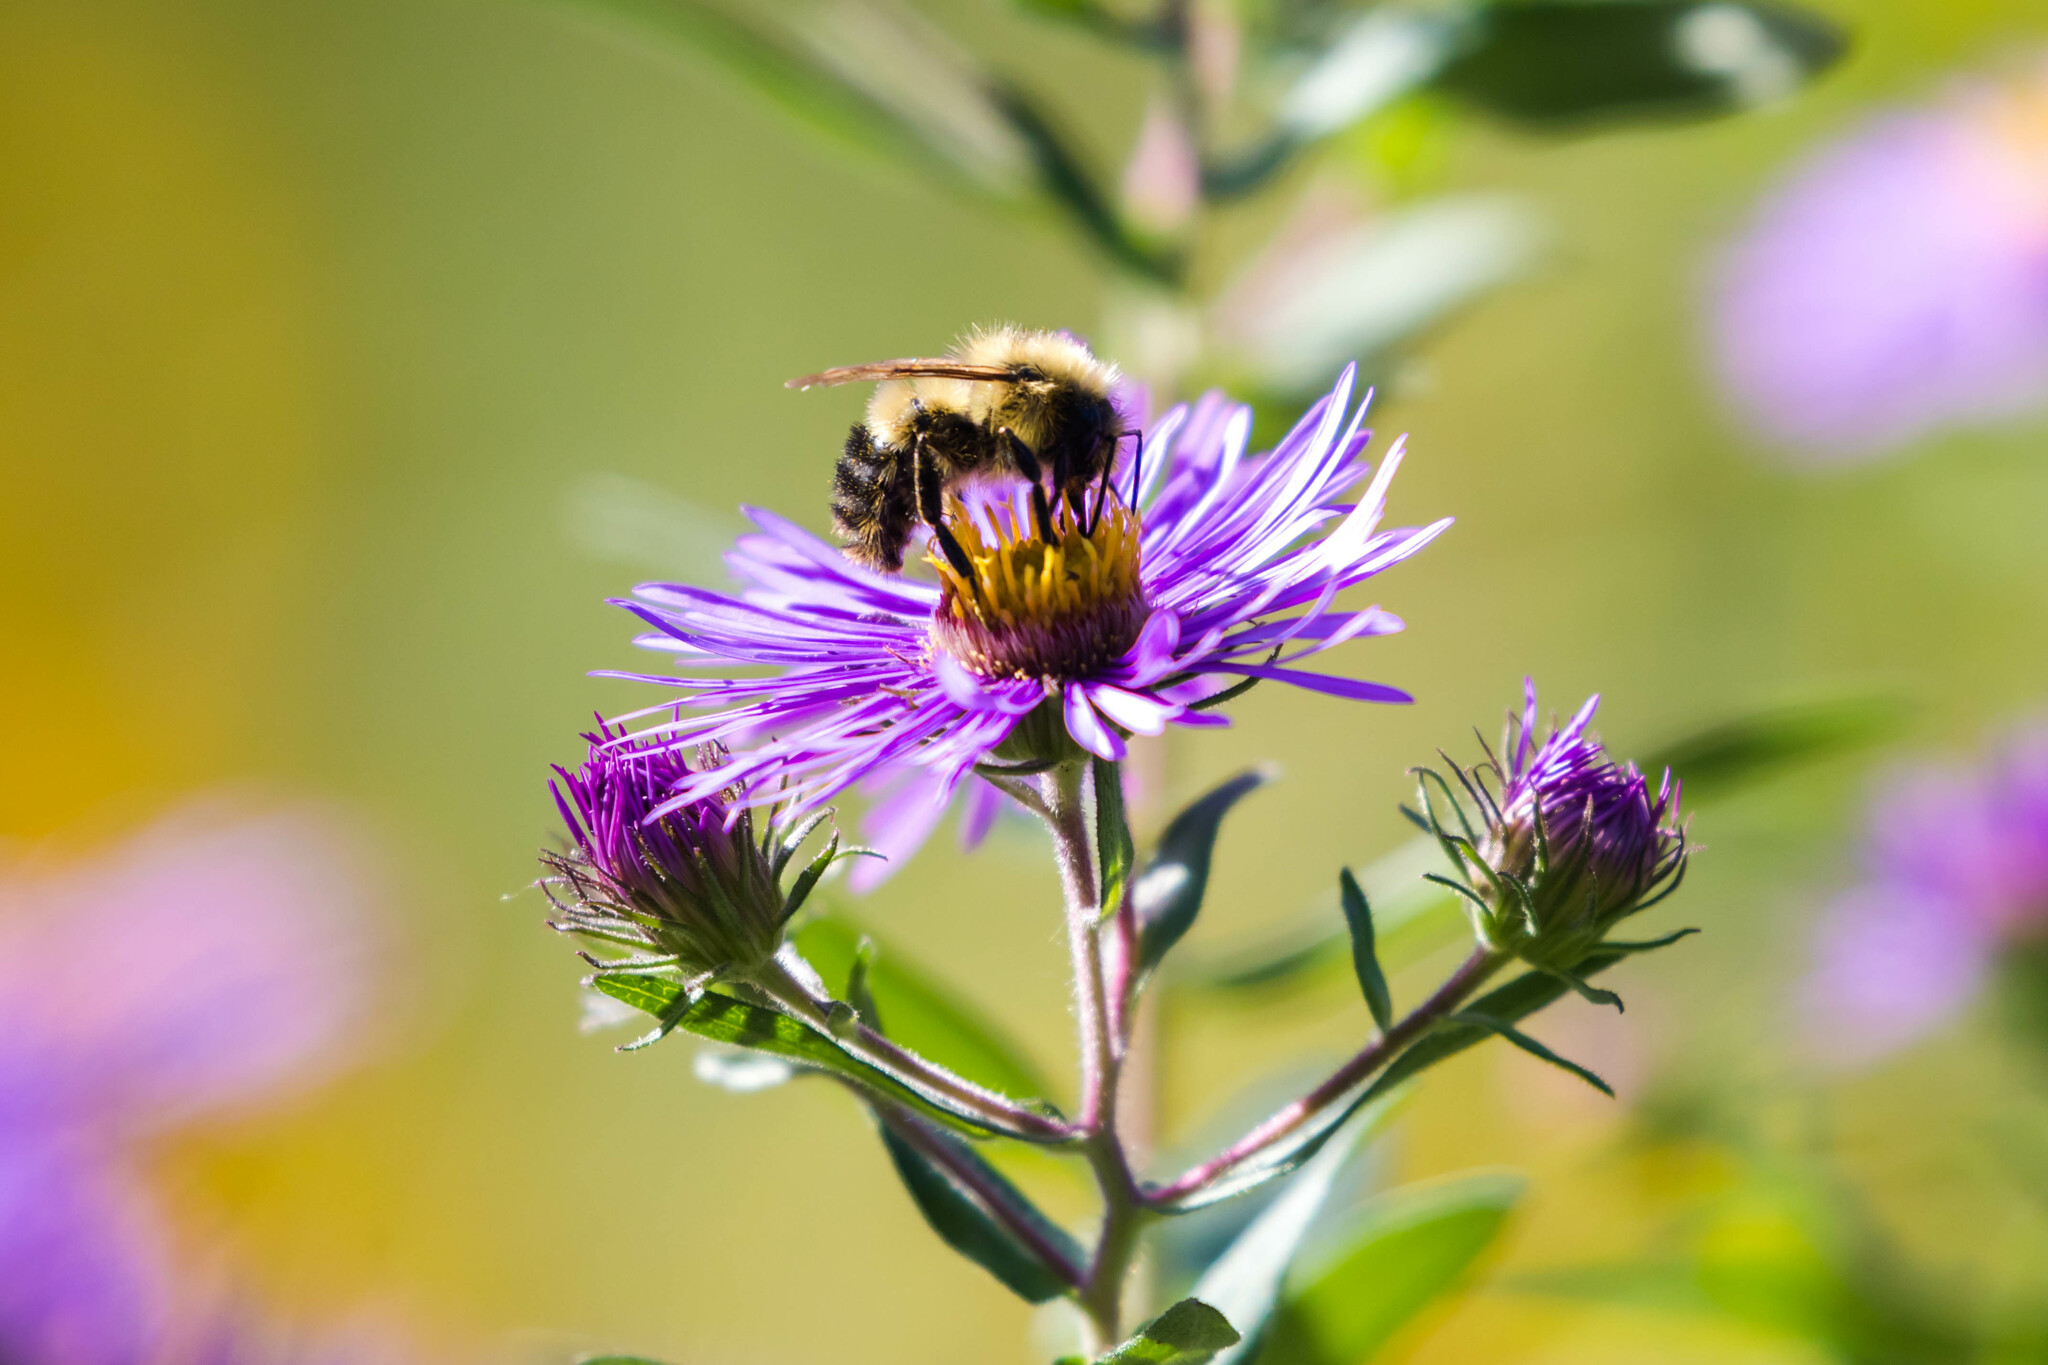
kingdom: Animalia
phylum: Arthropoda
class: Insecta
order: Hymenoptera
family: Apidae
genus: Pyrobombus
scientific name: Pyrobombus
